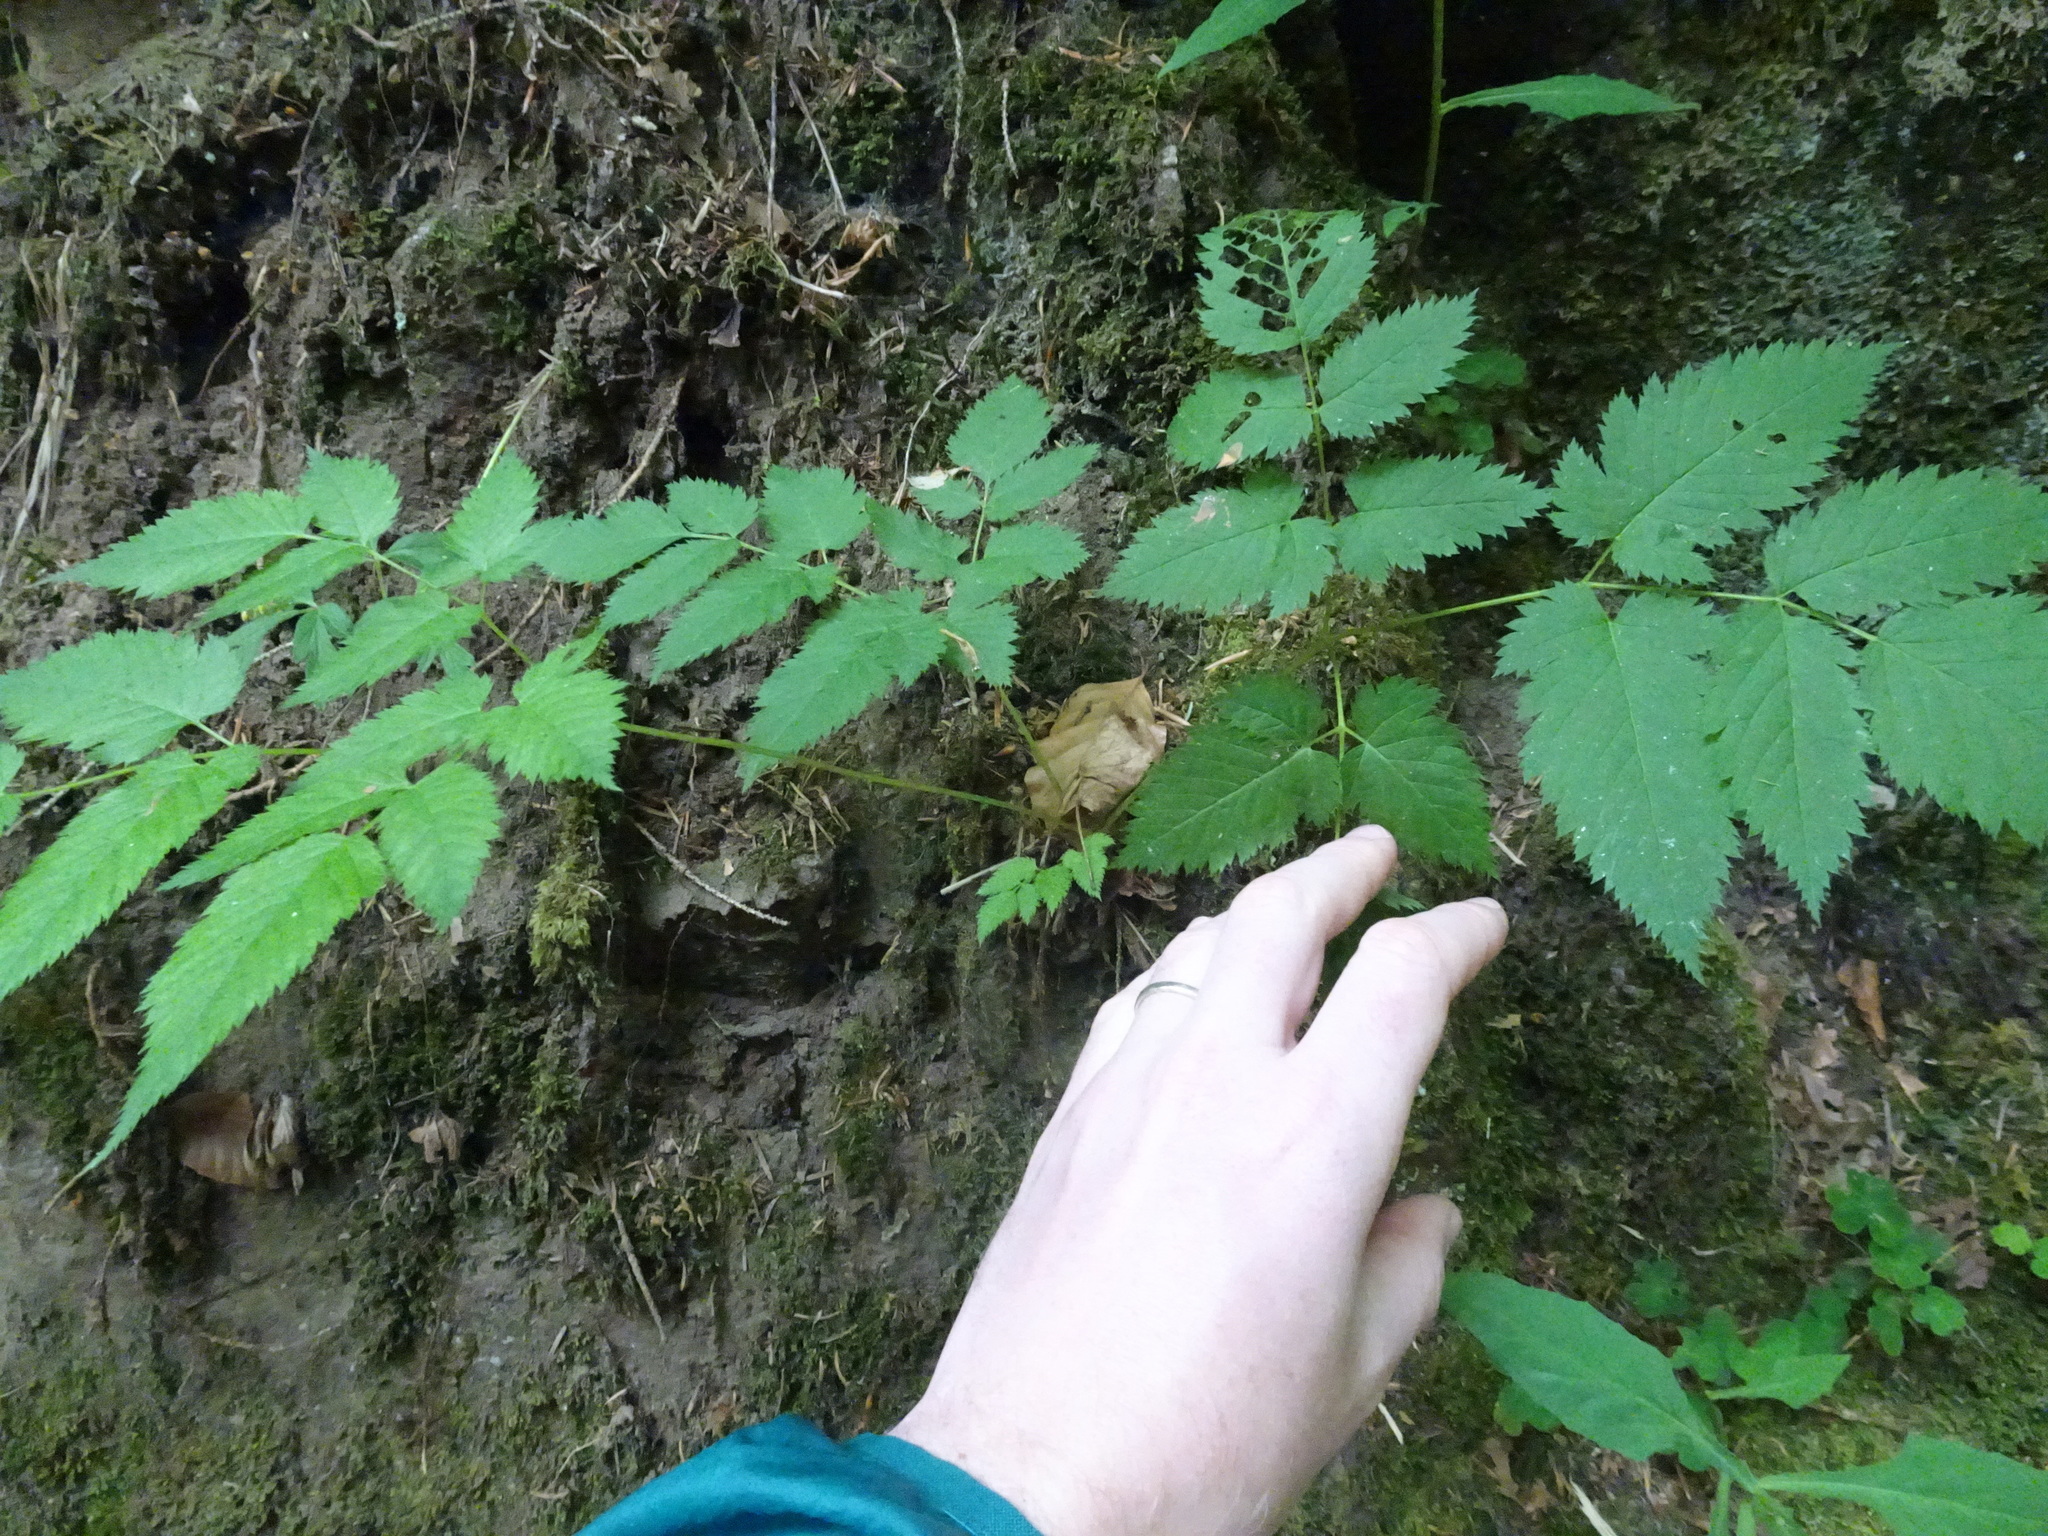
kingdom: Plantae
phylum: Tracheophyta
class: Magnoliopsida
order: Rosales
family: Rosaceae
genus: Aruncus
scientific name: Aruncus dioicus
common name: Buck's-beard
